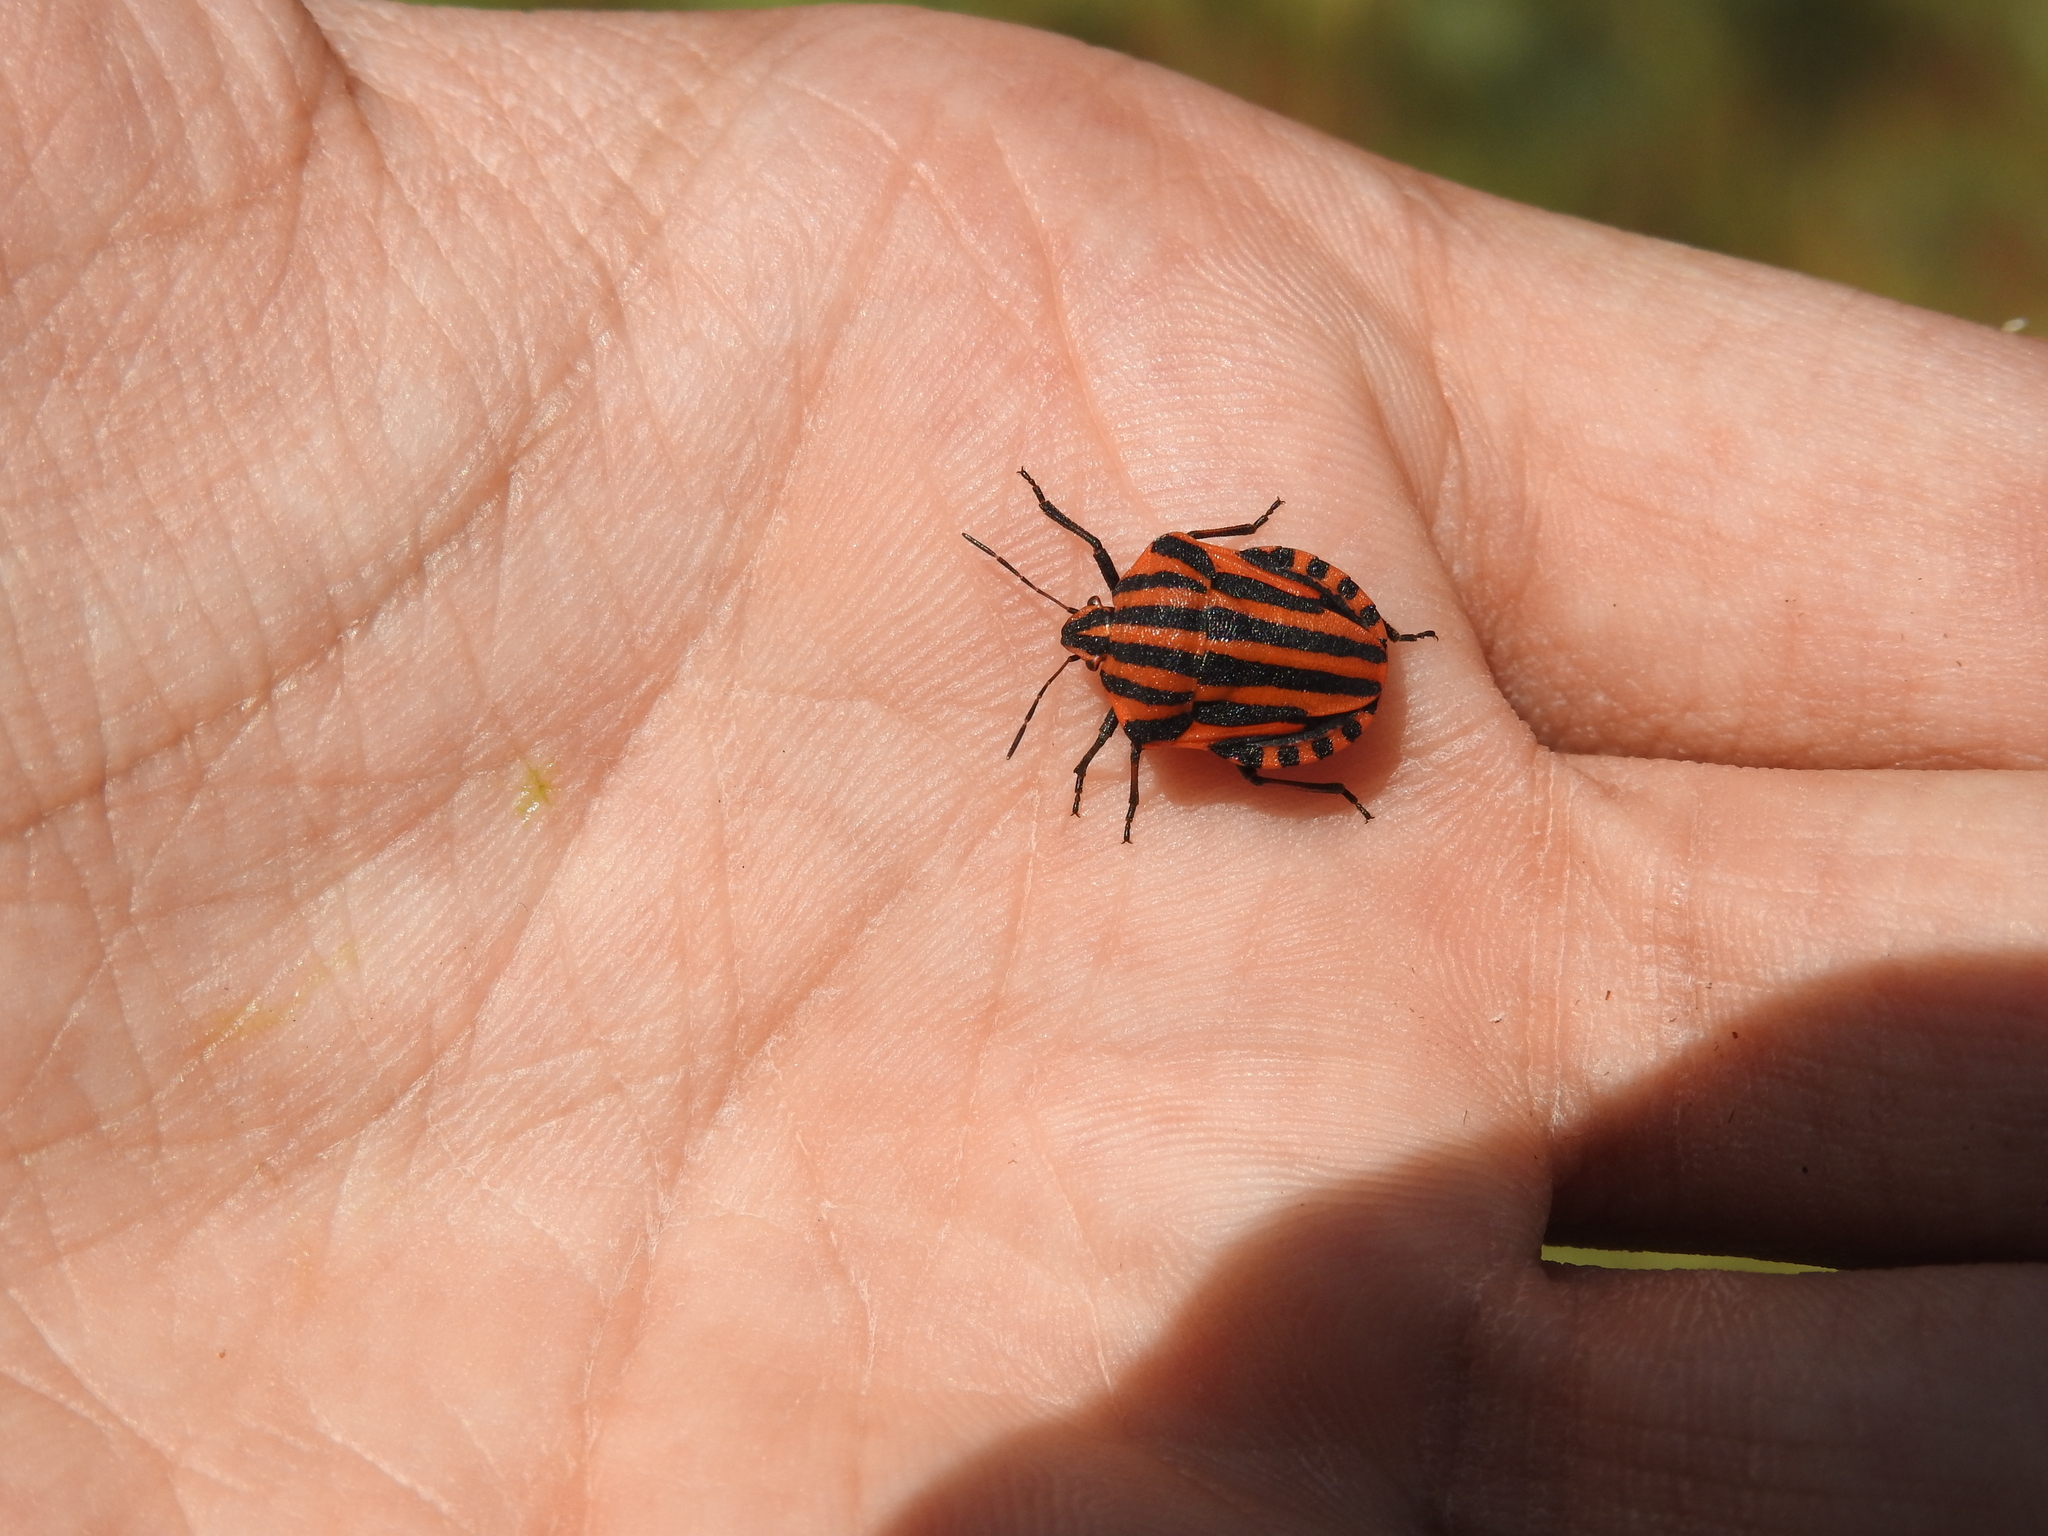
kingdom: Animalia
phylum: Arthropoda
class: Insecta
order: Hemiptera
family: Pentatomidae
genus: Graphosoma
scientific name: Graphosoma italicum
